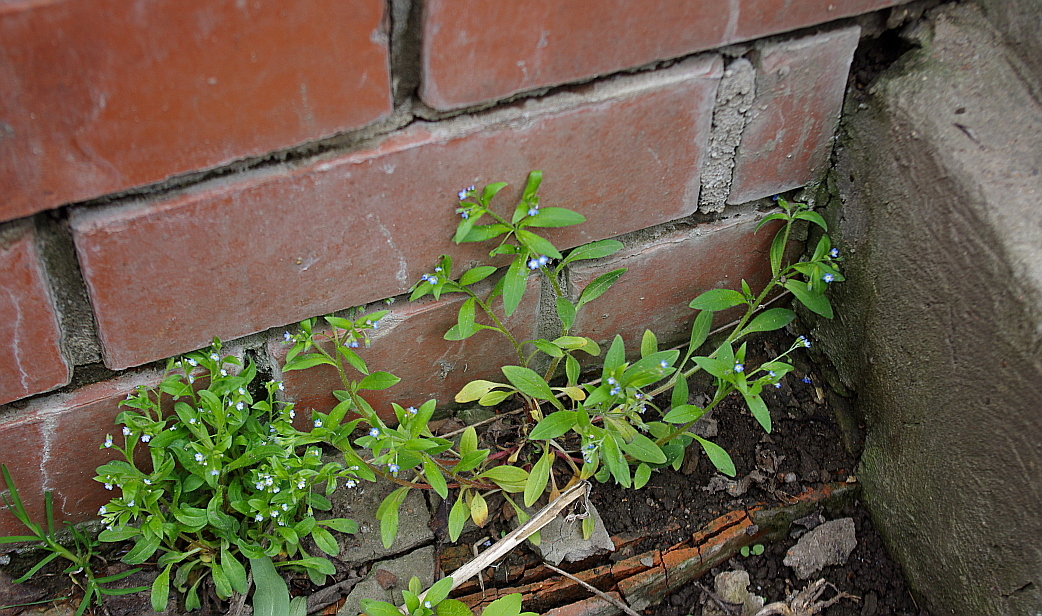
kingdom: Plantae
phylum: Tracheophyta
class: Magnoliopsida
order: Boraginales
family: Boraginaceae
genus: Myosotis
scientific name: Myosotis sparsiflora
